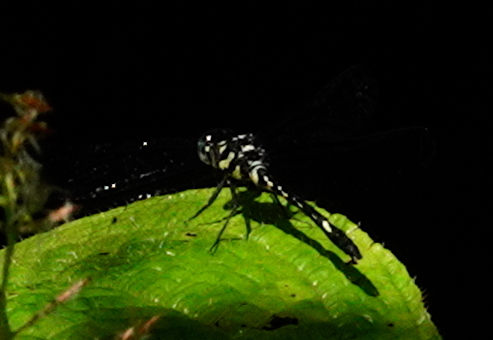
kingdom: Animalia
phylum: Arthropoda
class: Insecta
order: Odonata
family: Libellulidae
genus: Hylaeothemis
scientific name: Hylaeothemis fruhstorferi
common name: Fruhstorfer’s junglewatcher
